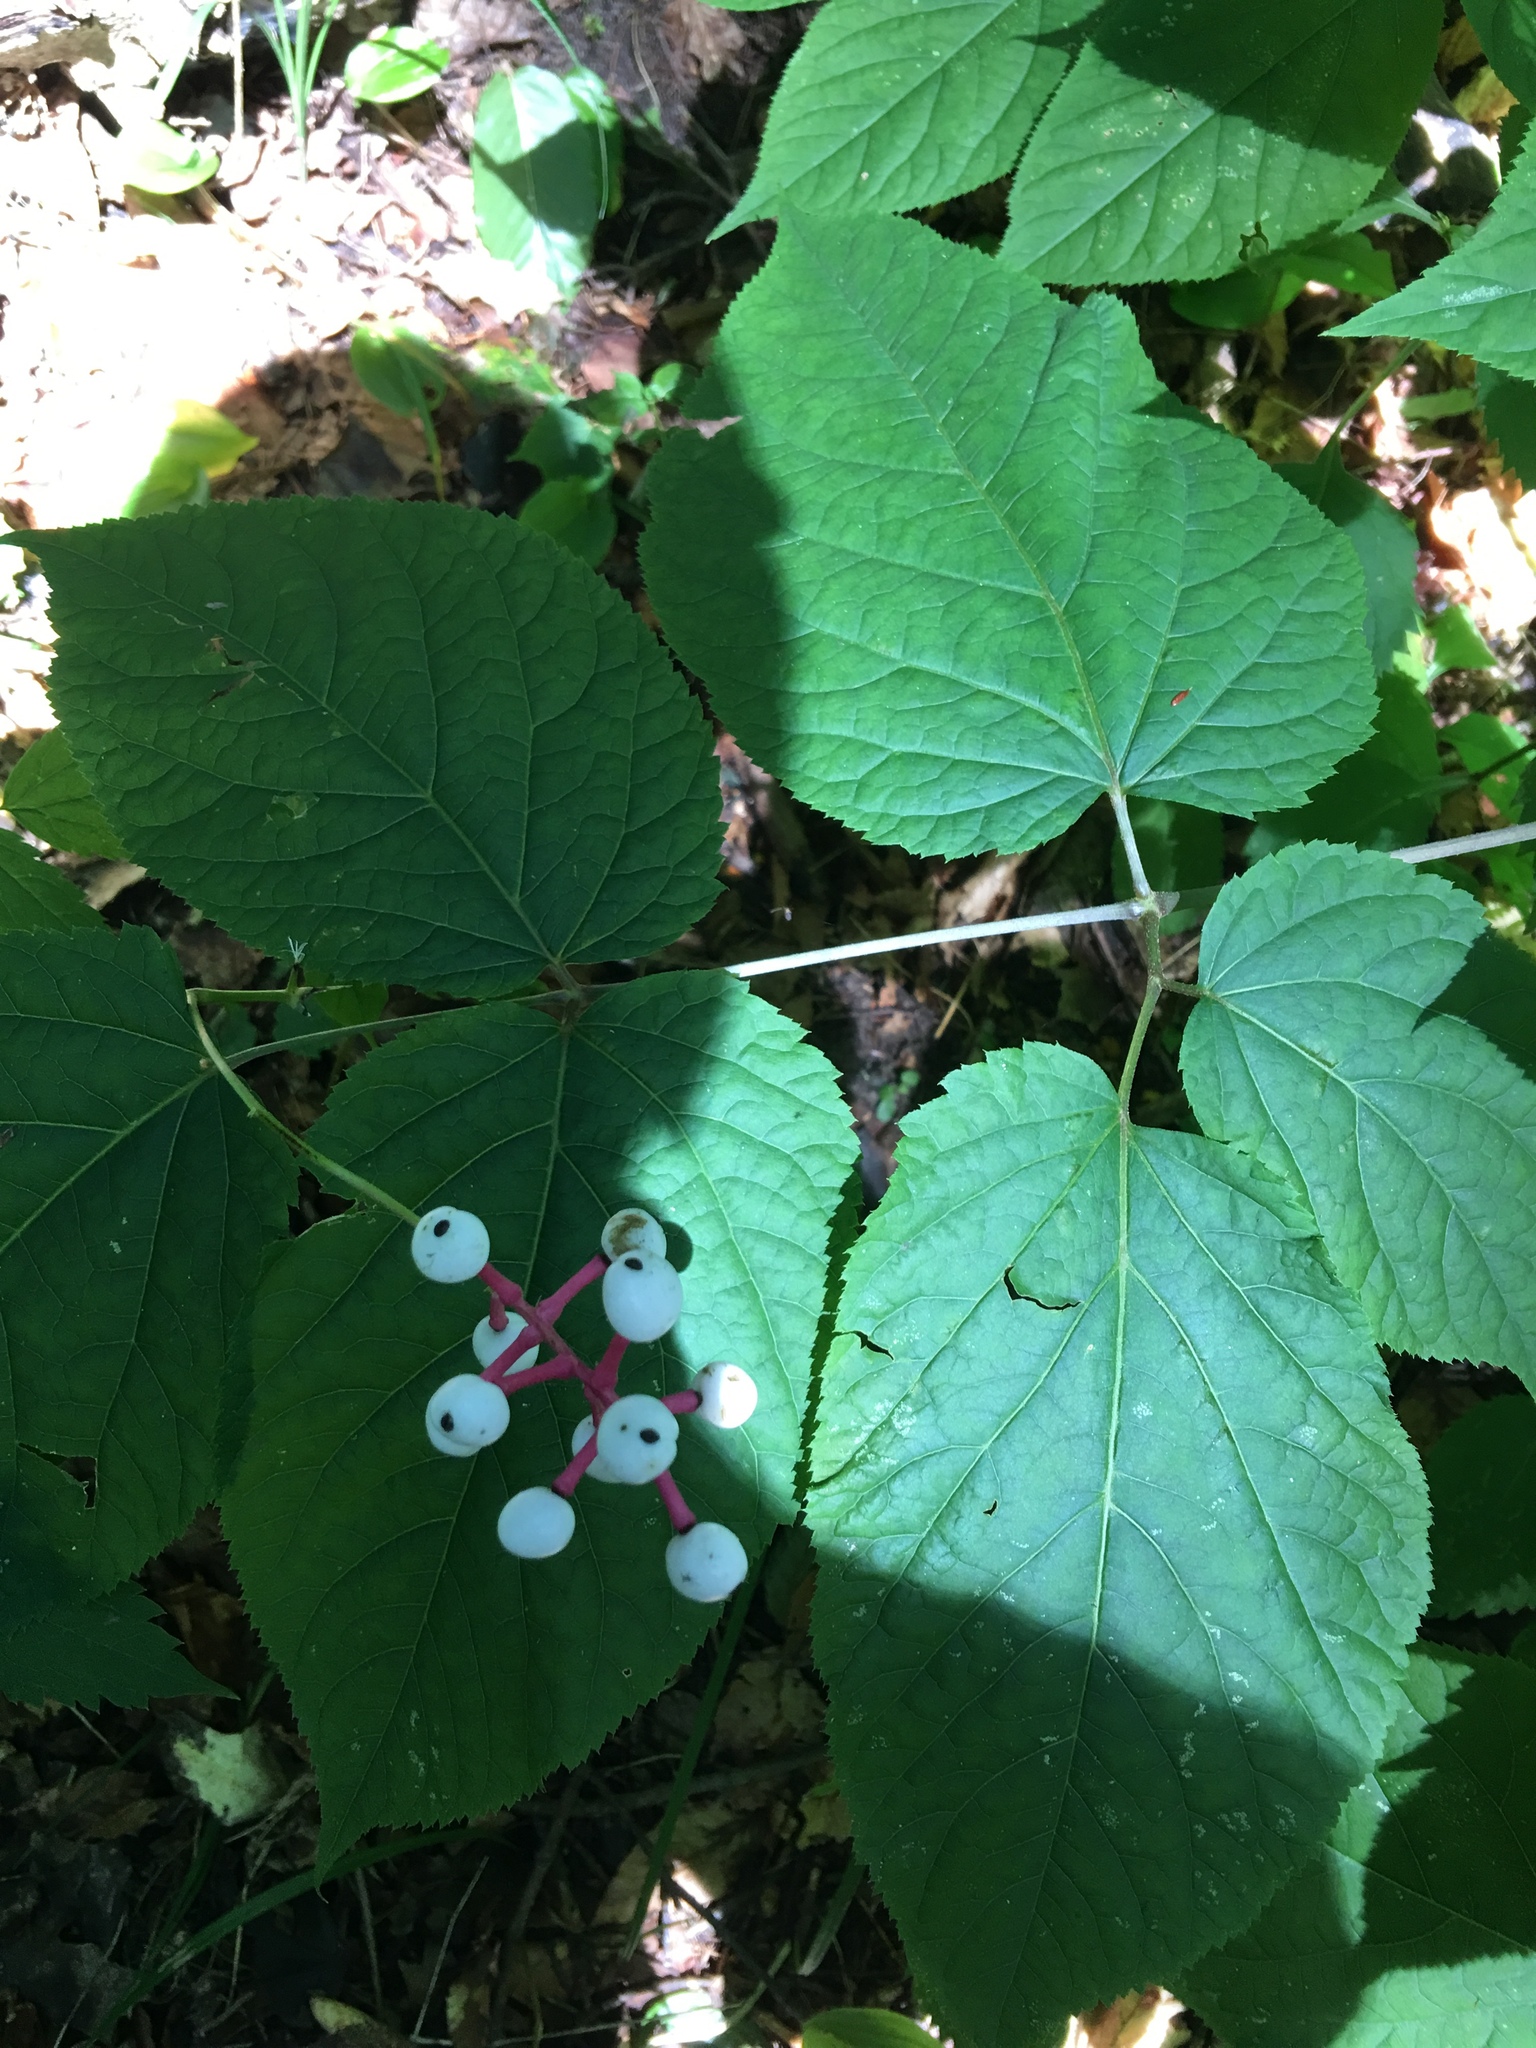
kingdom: Plantae
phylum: Tracheophyta
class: Magnoliopsida
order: Ranunculales
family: Ranunculaceae
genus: Actaea
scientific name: Actaea pachypoda
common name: Doll's-eyes
